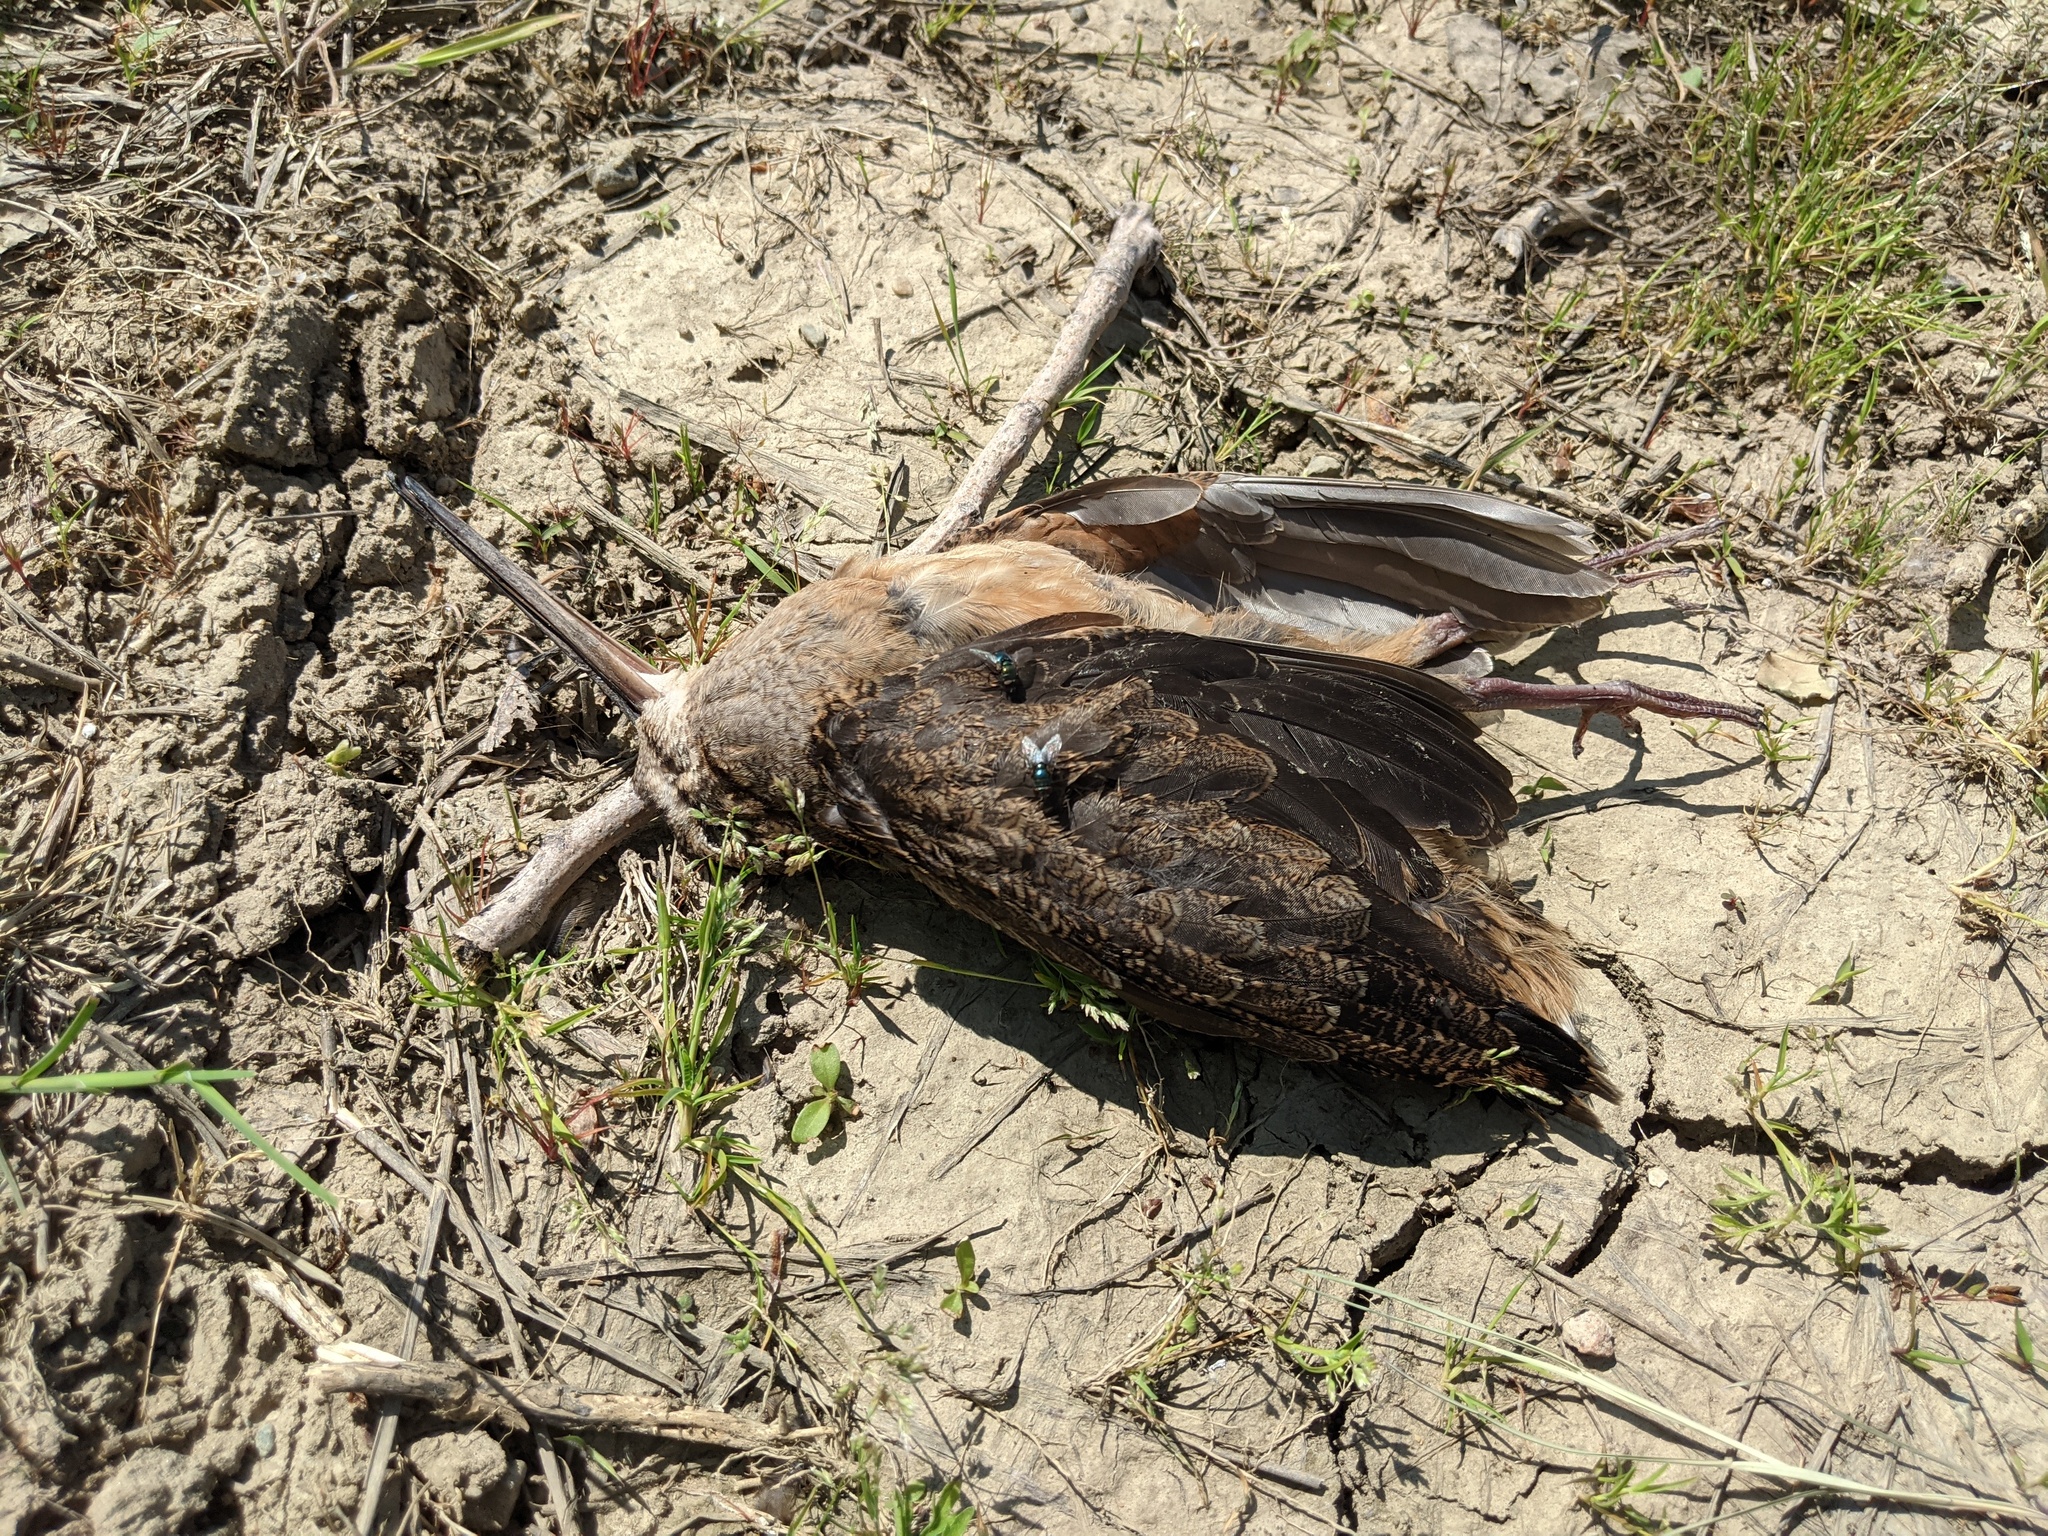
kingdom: Animalia
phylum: Chordata
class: Aves
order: Charadriiformes
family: Scolopacidae
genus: Scolopax
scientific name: Scolopax minor
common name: American woodcock
